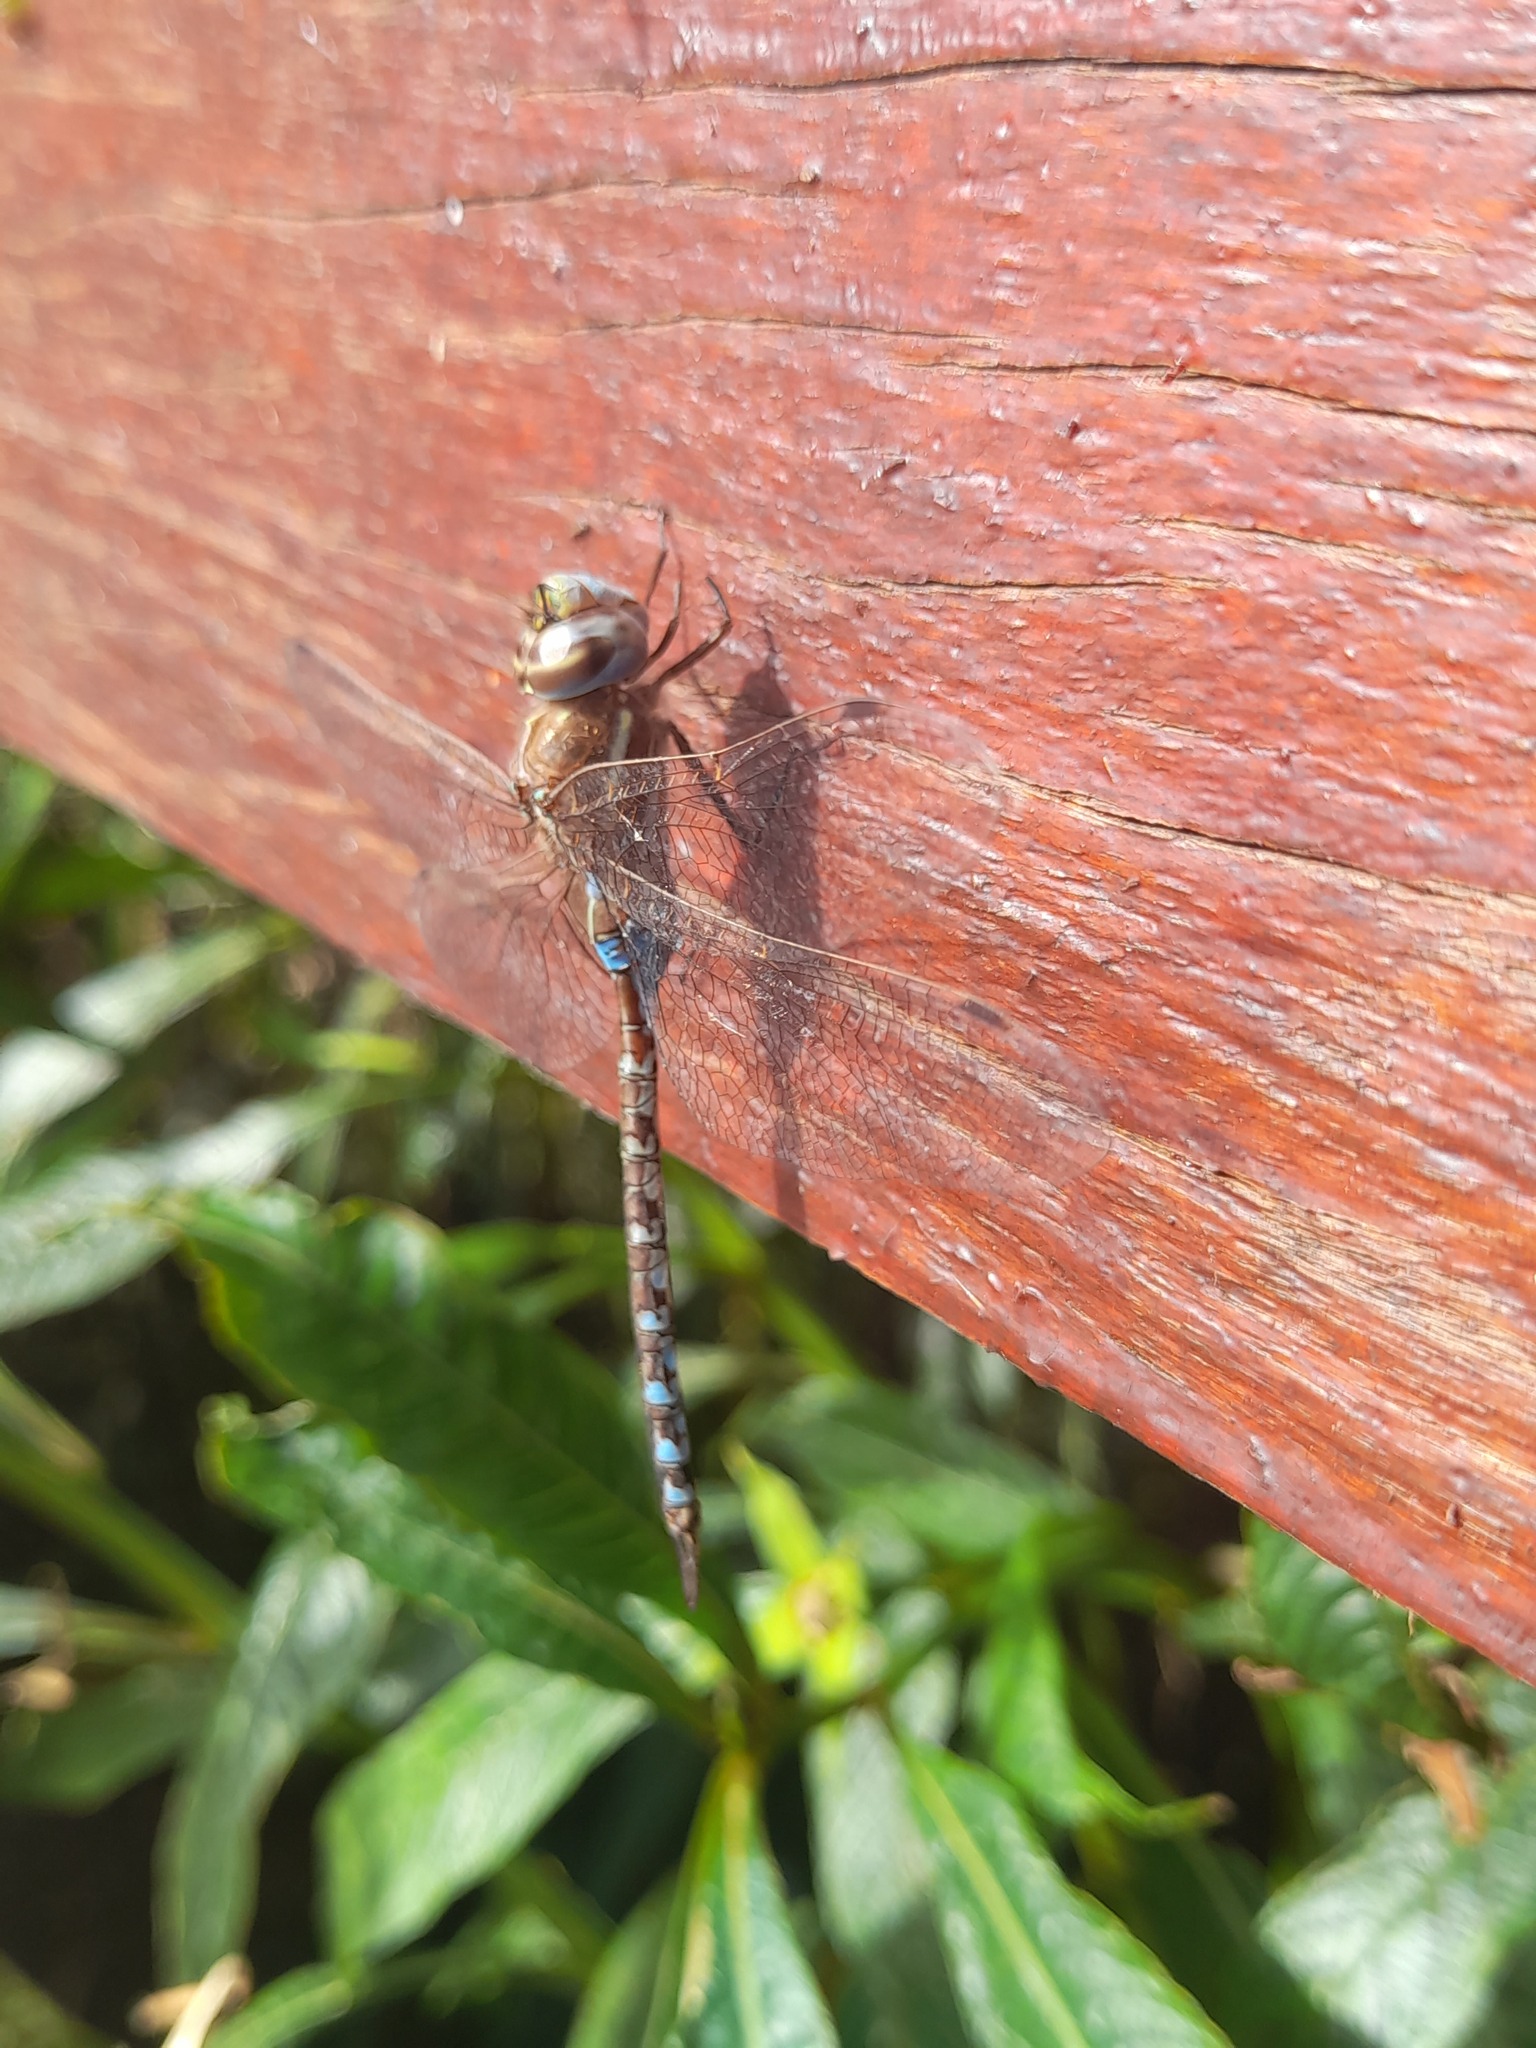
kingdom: Animalia
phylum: Arthropoda
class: Insecta
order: Odonata
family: Aeshnidae
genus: Rhionaeschna
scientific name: Rhionaeschna bonariensis
